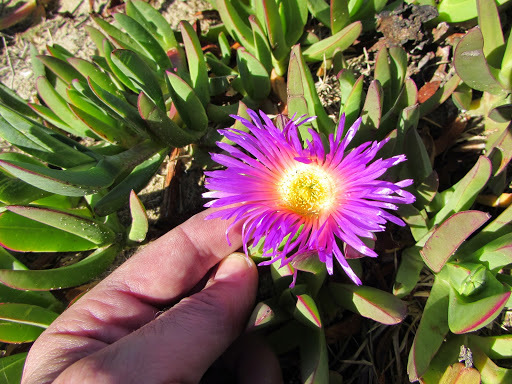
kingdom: Plantae
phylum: Tracheophyta
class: Magnoliopsida
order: Caryophyllales
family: Aizoaceae
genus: Carpobrotus
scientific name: Carpobrotus chilensis
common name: Sea fig
